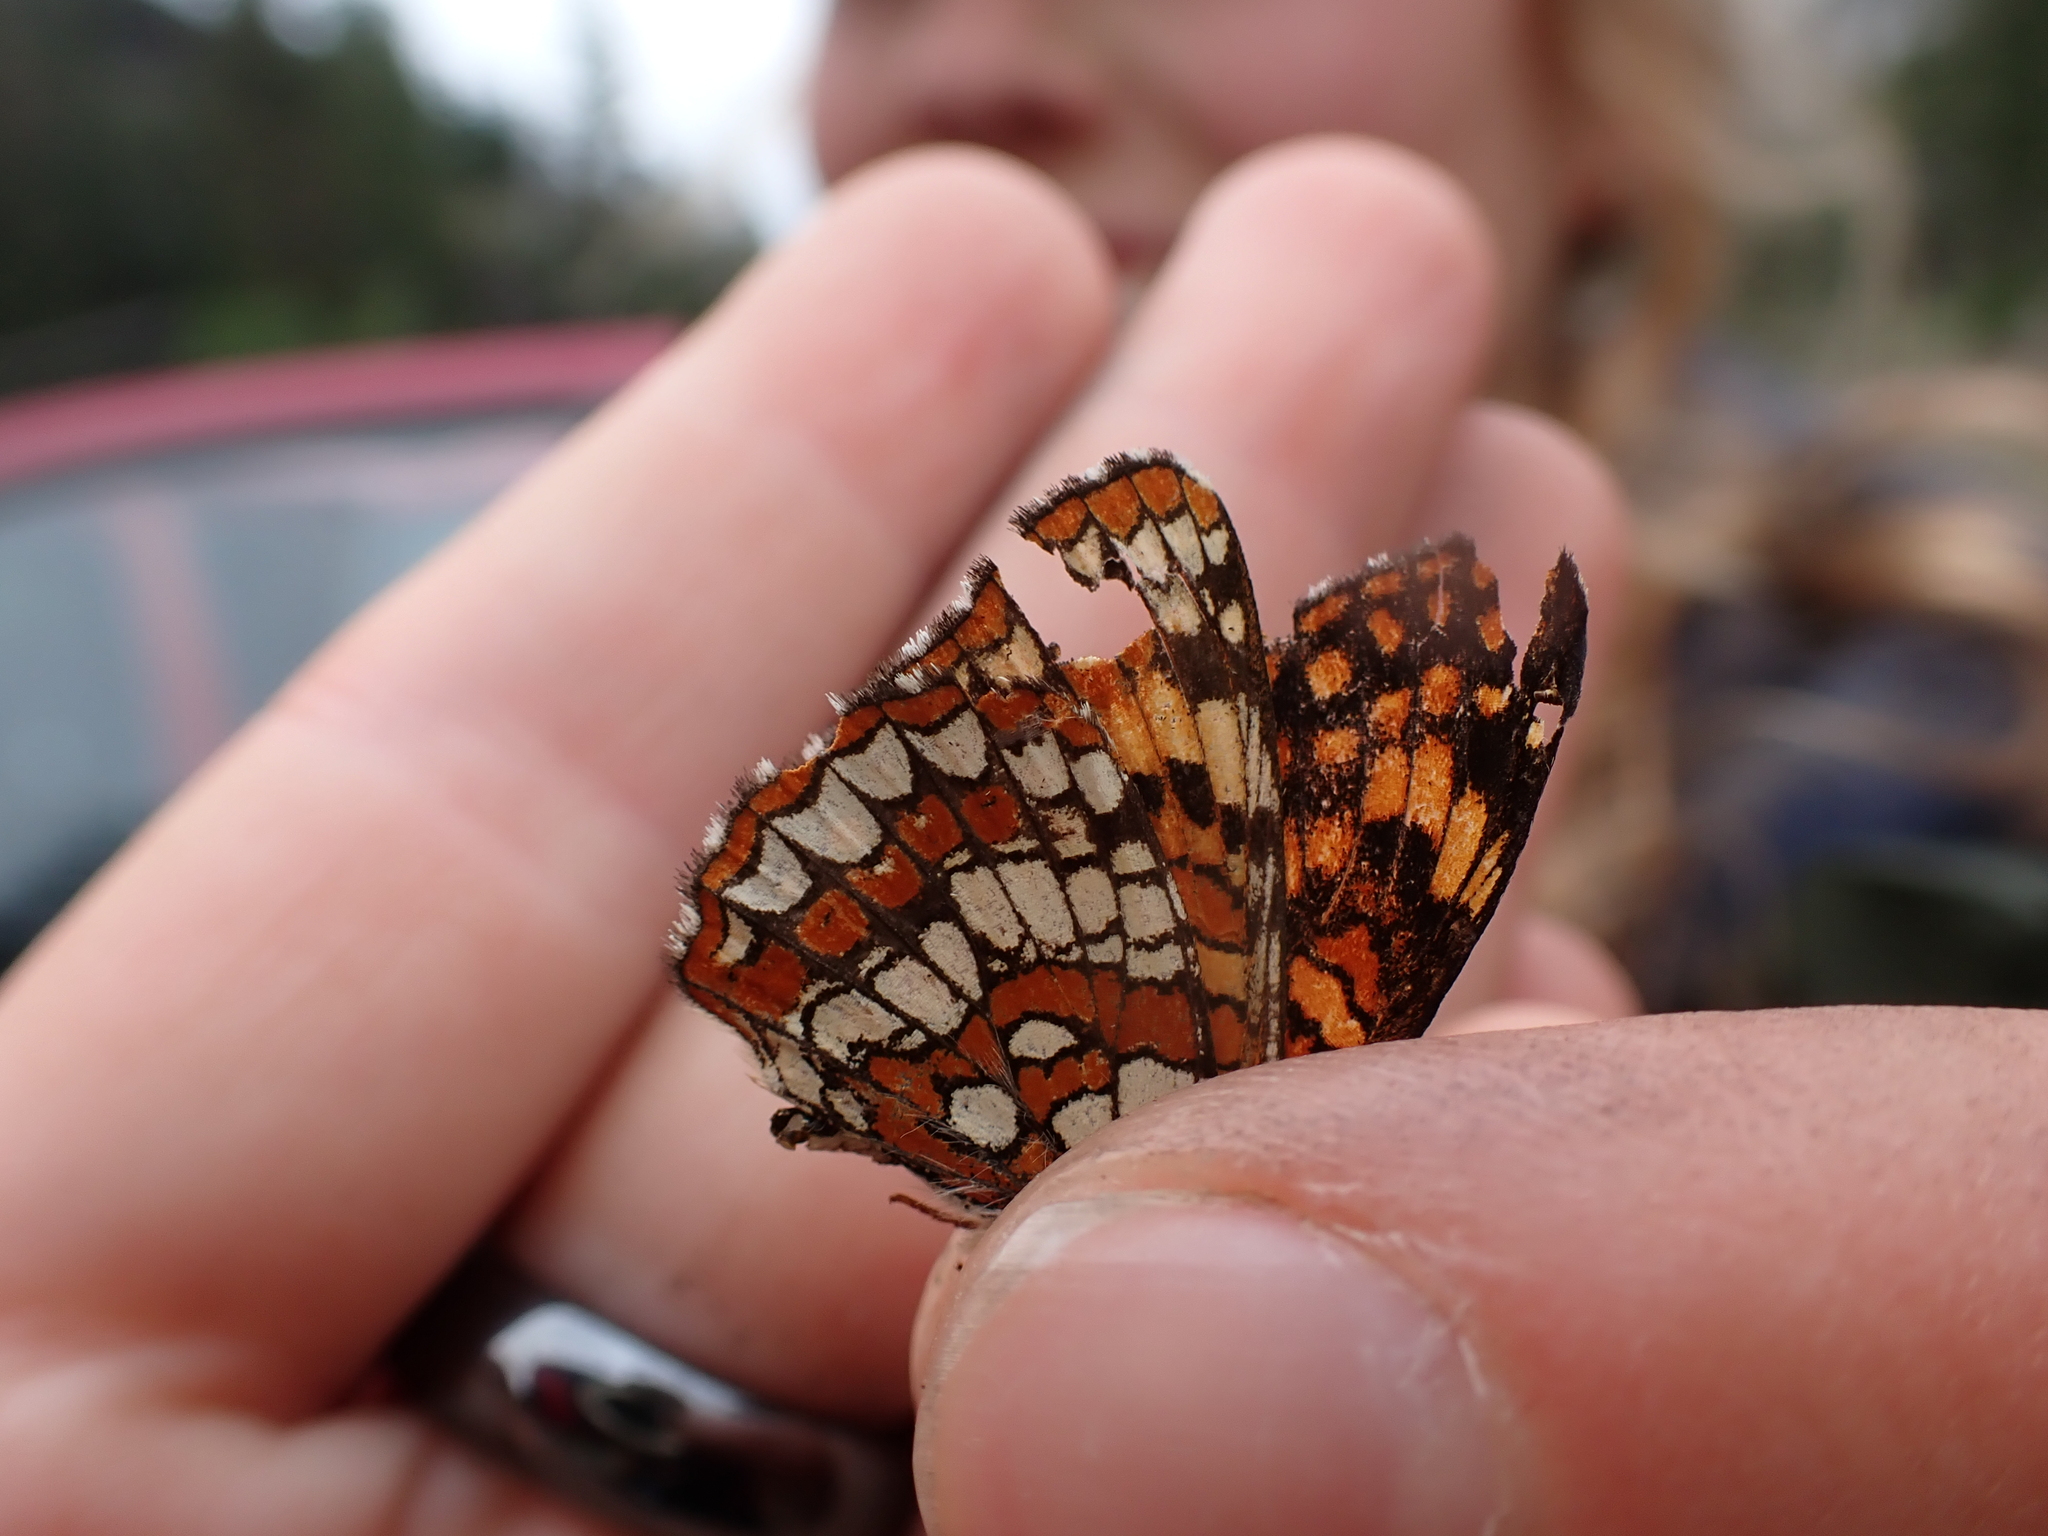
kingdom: Animalia
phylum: Arthropoda
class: Insecta
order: Lepidoptera
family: Nymphalidae
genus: Chlosyne
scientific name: Chlosyne palla
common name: Northern checkerspot
